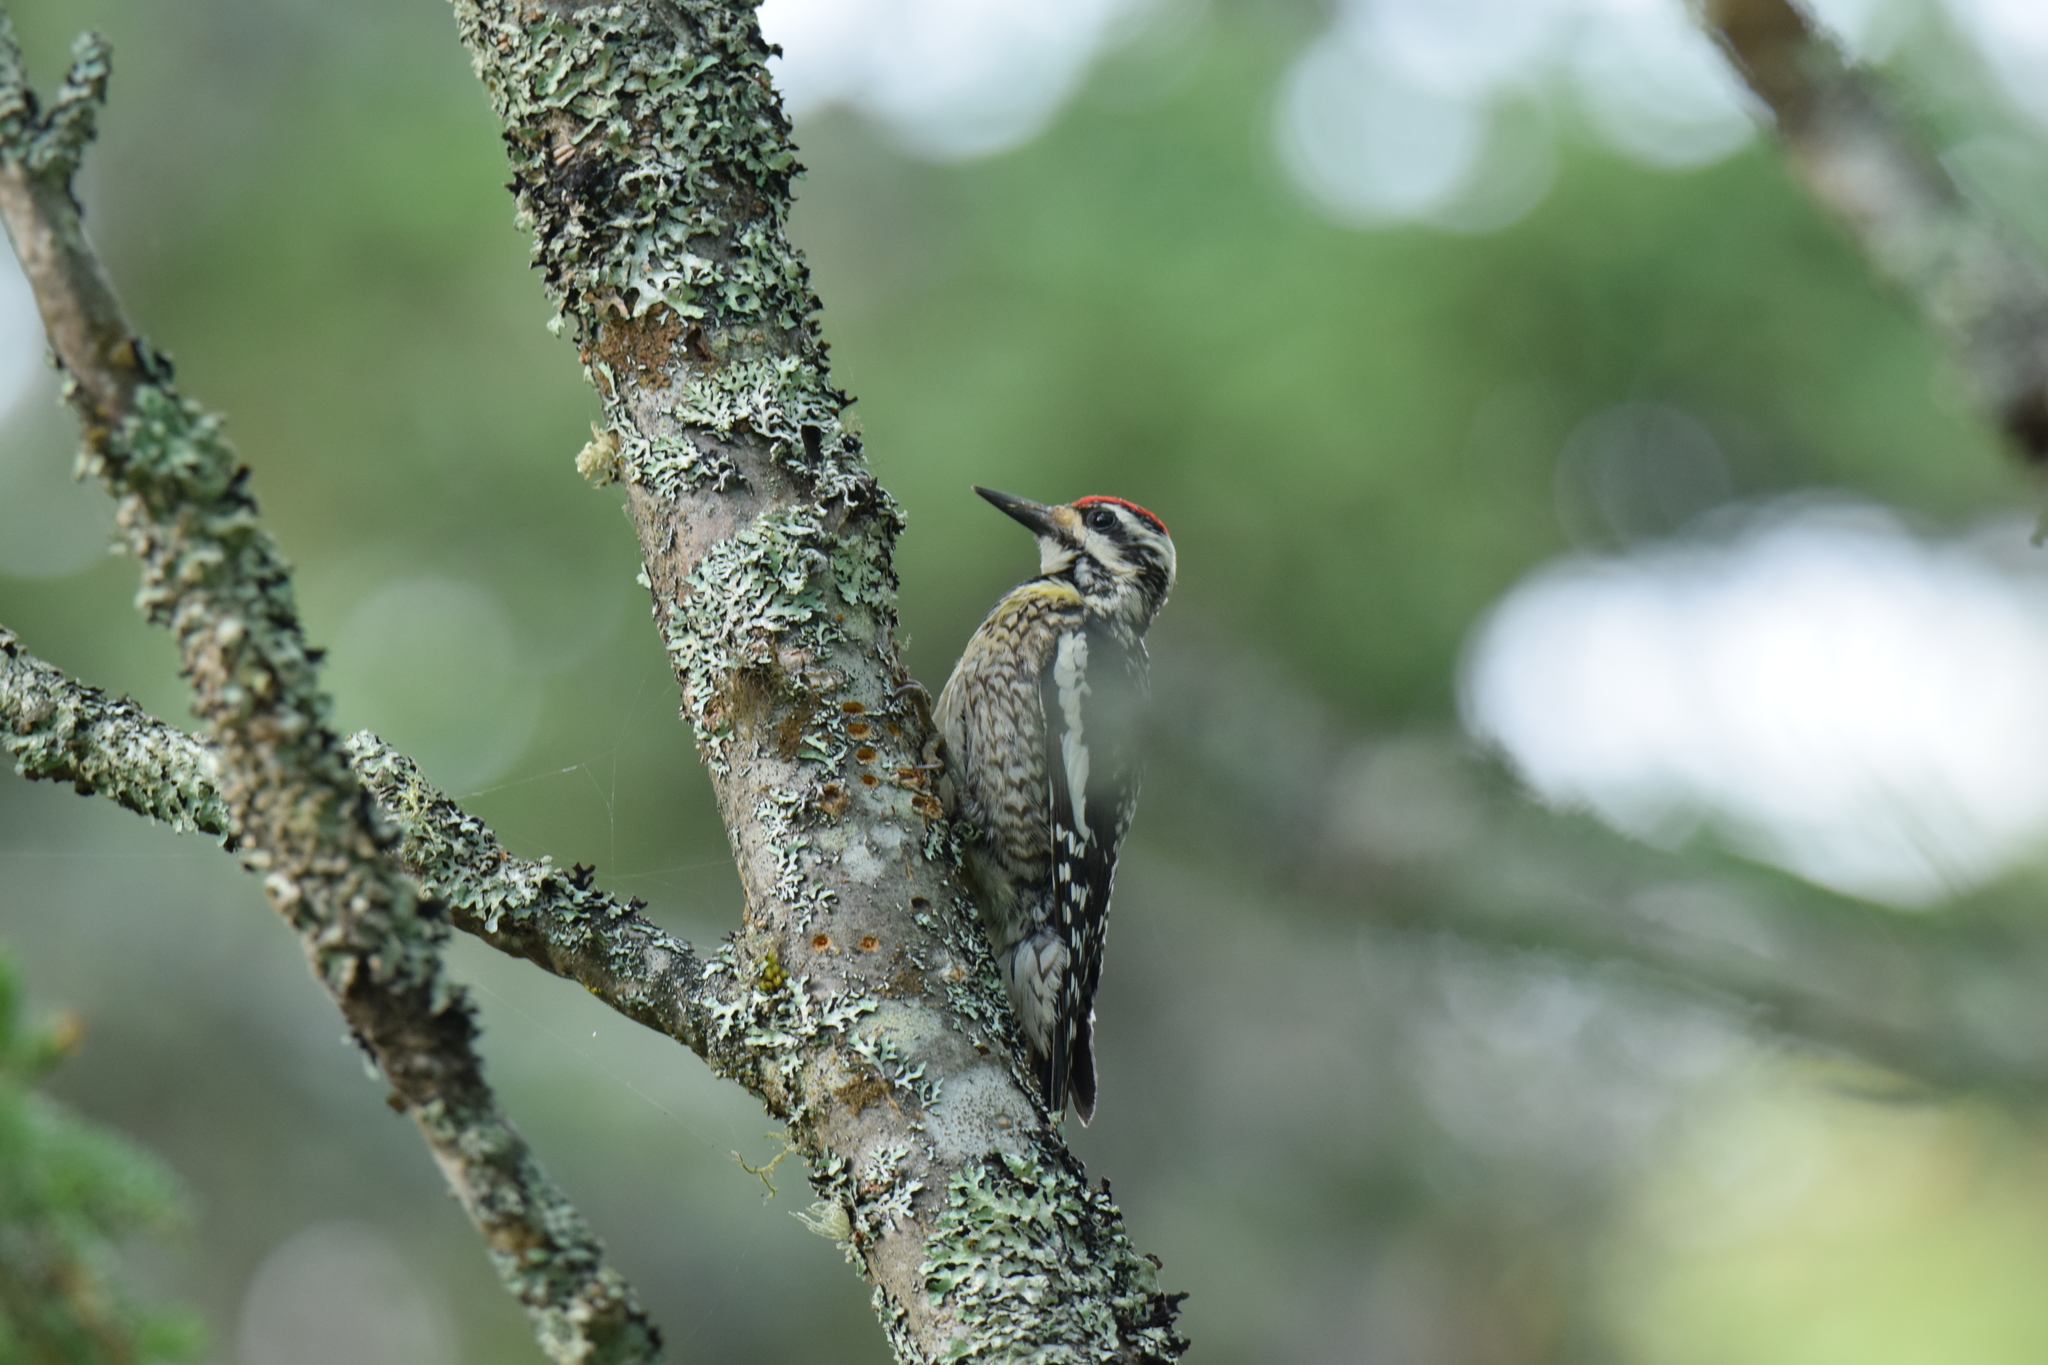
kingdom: Animalia
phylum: Chordata
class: Aves
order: Piciformes
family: Picidae
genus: Sphyrapicus
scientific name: Sphyrapicus varius
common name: Yellow-bellied sapsucker
